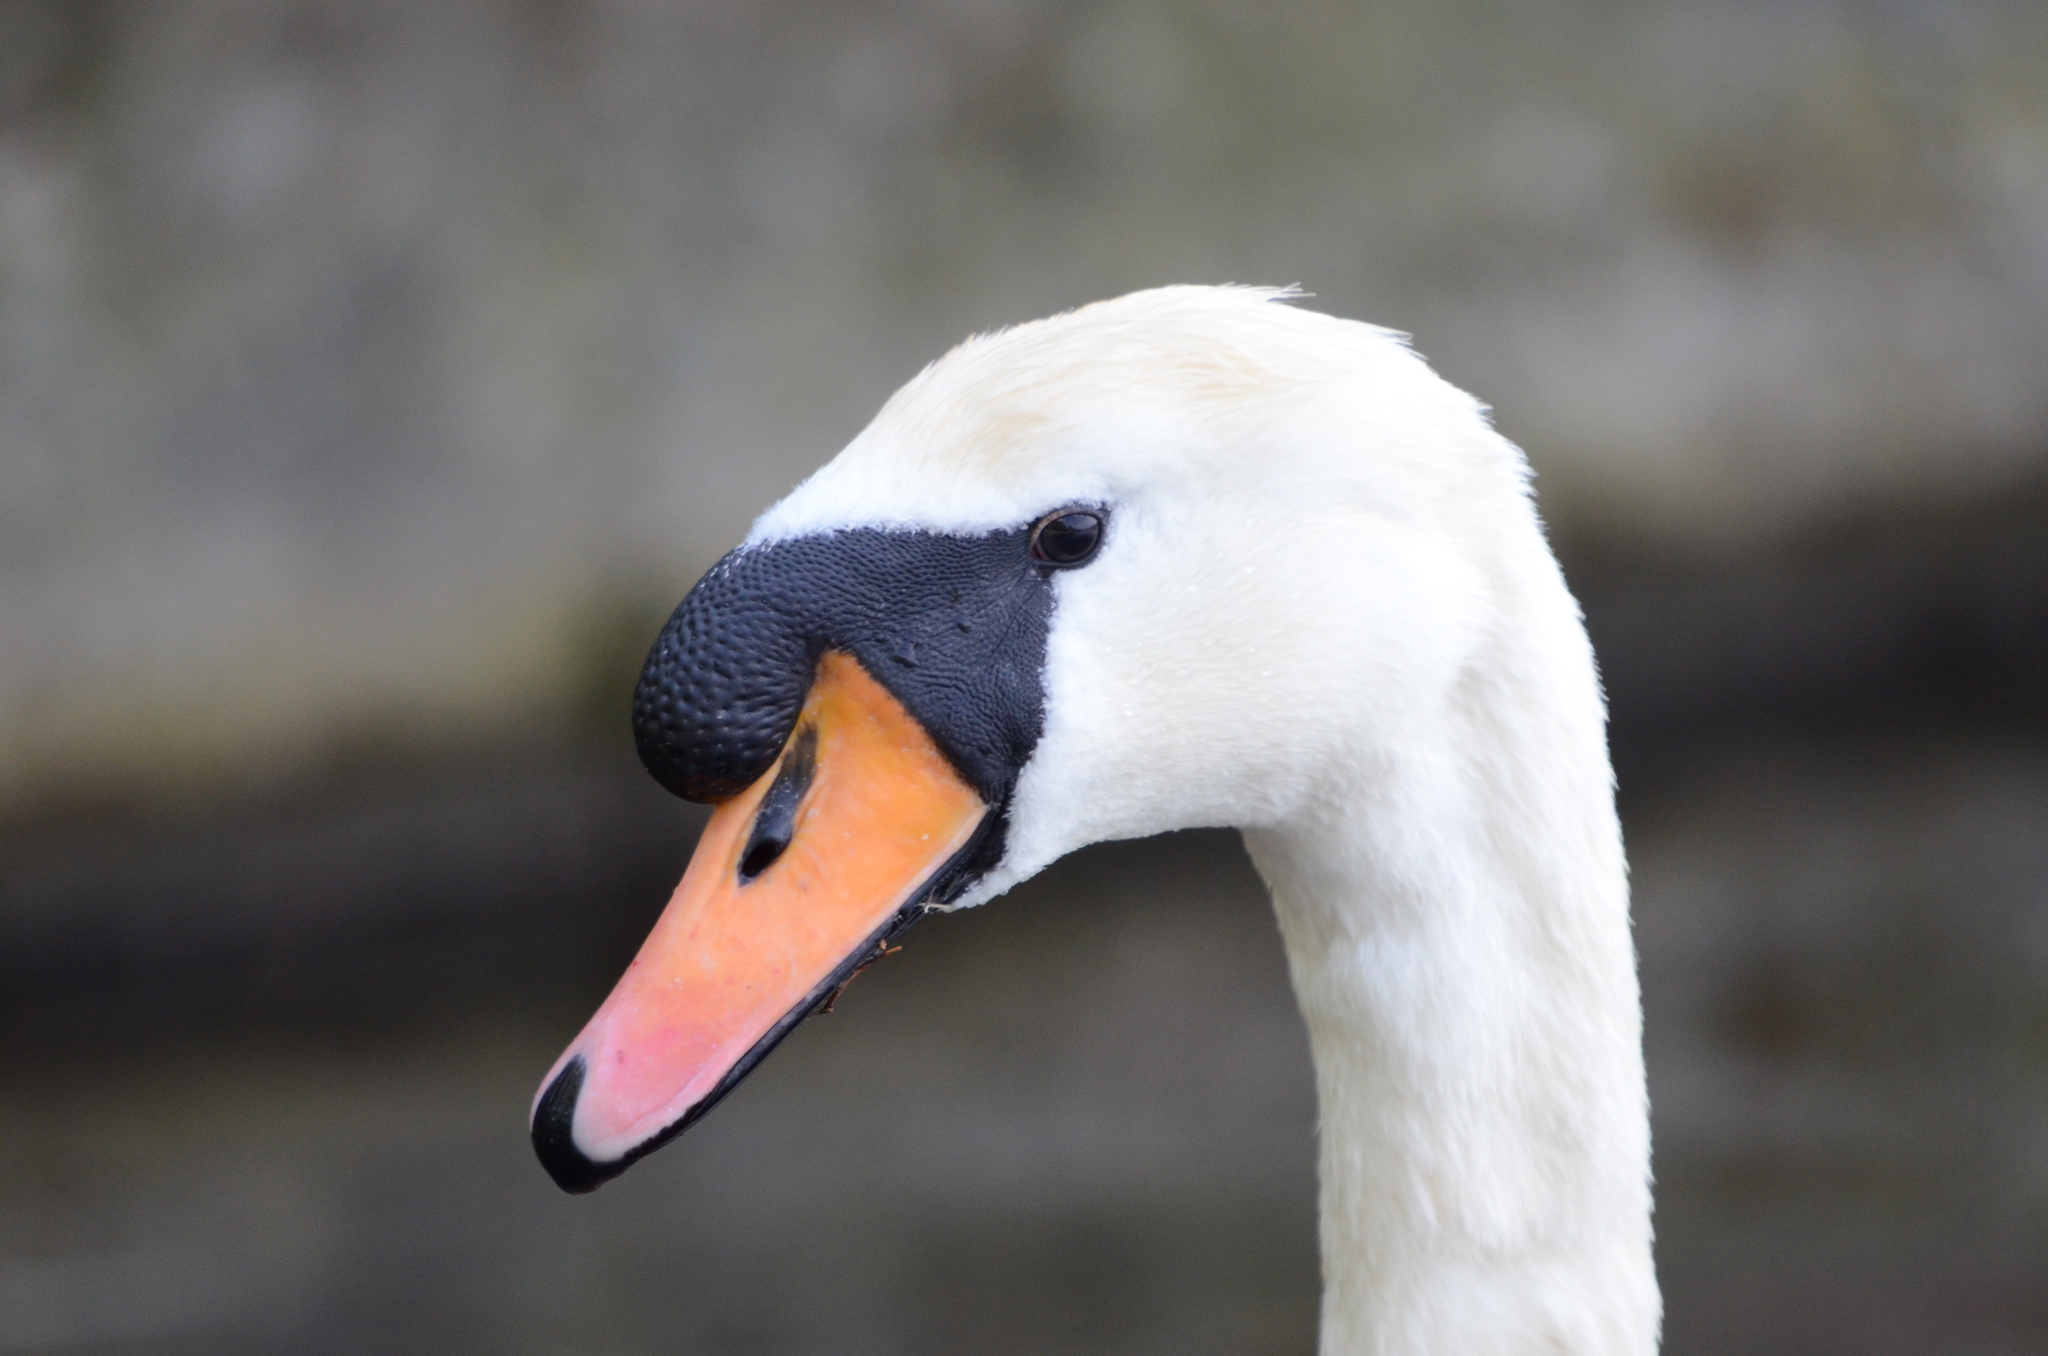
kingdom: Animalia
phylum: Chordata
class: Aves
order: Anseriformes
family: Anatidae
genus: Cygnus
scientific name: Cygnus olor
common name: Mute swan
